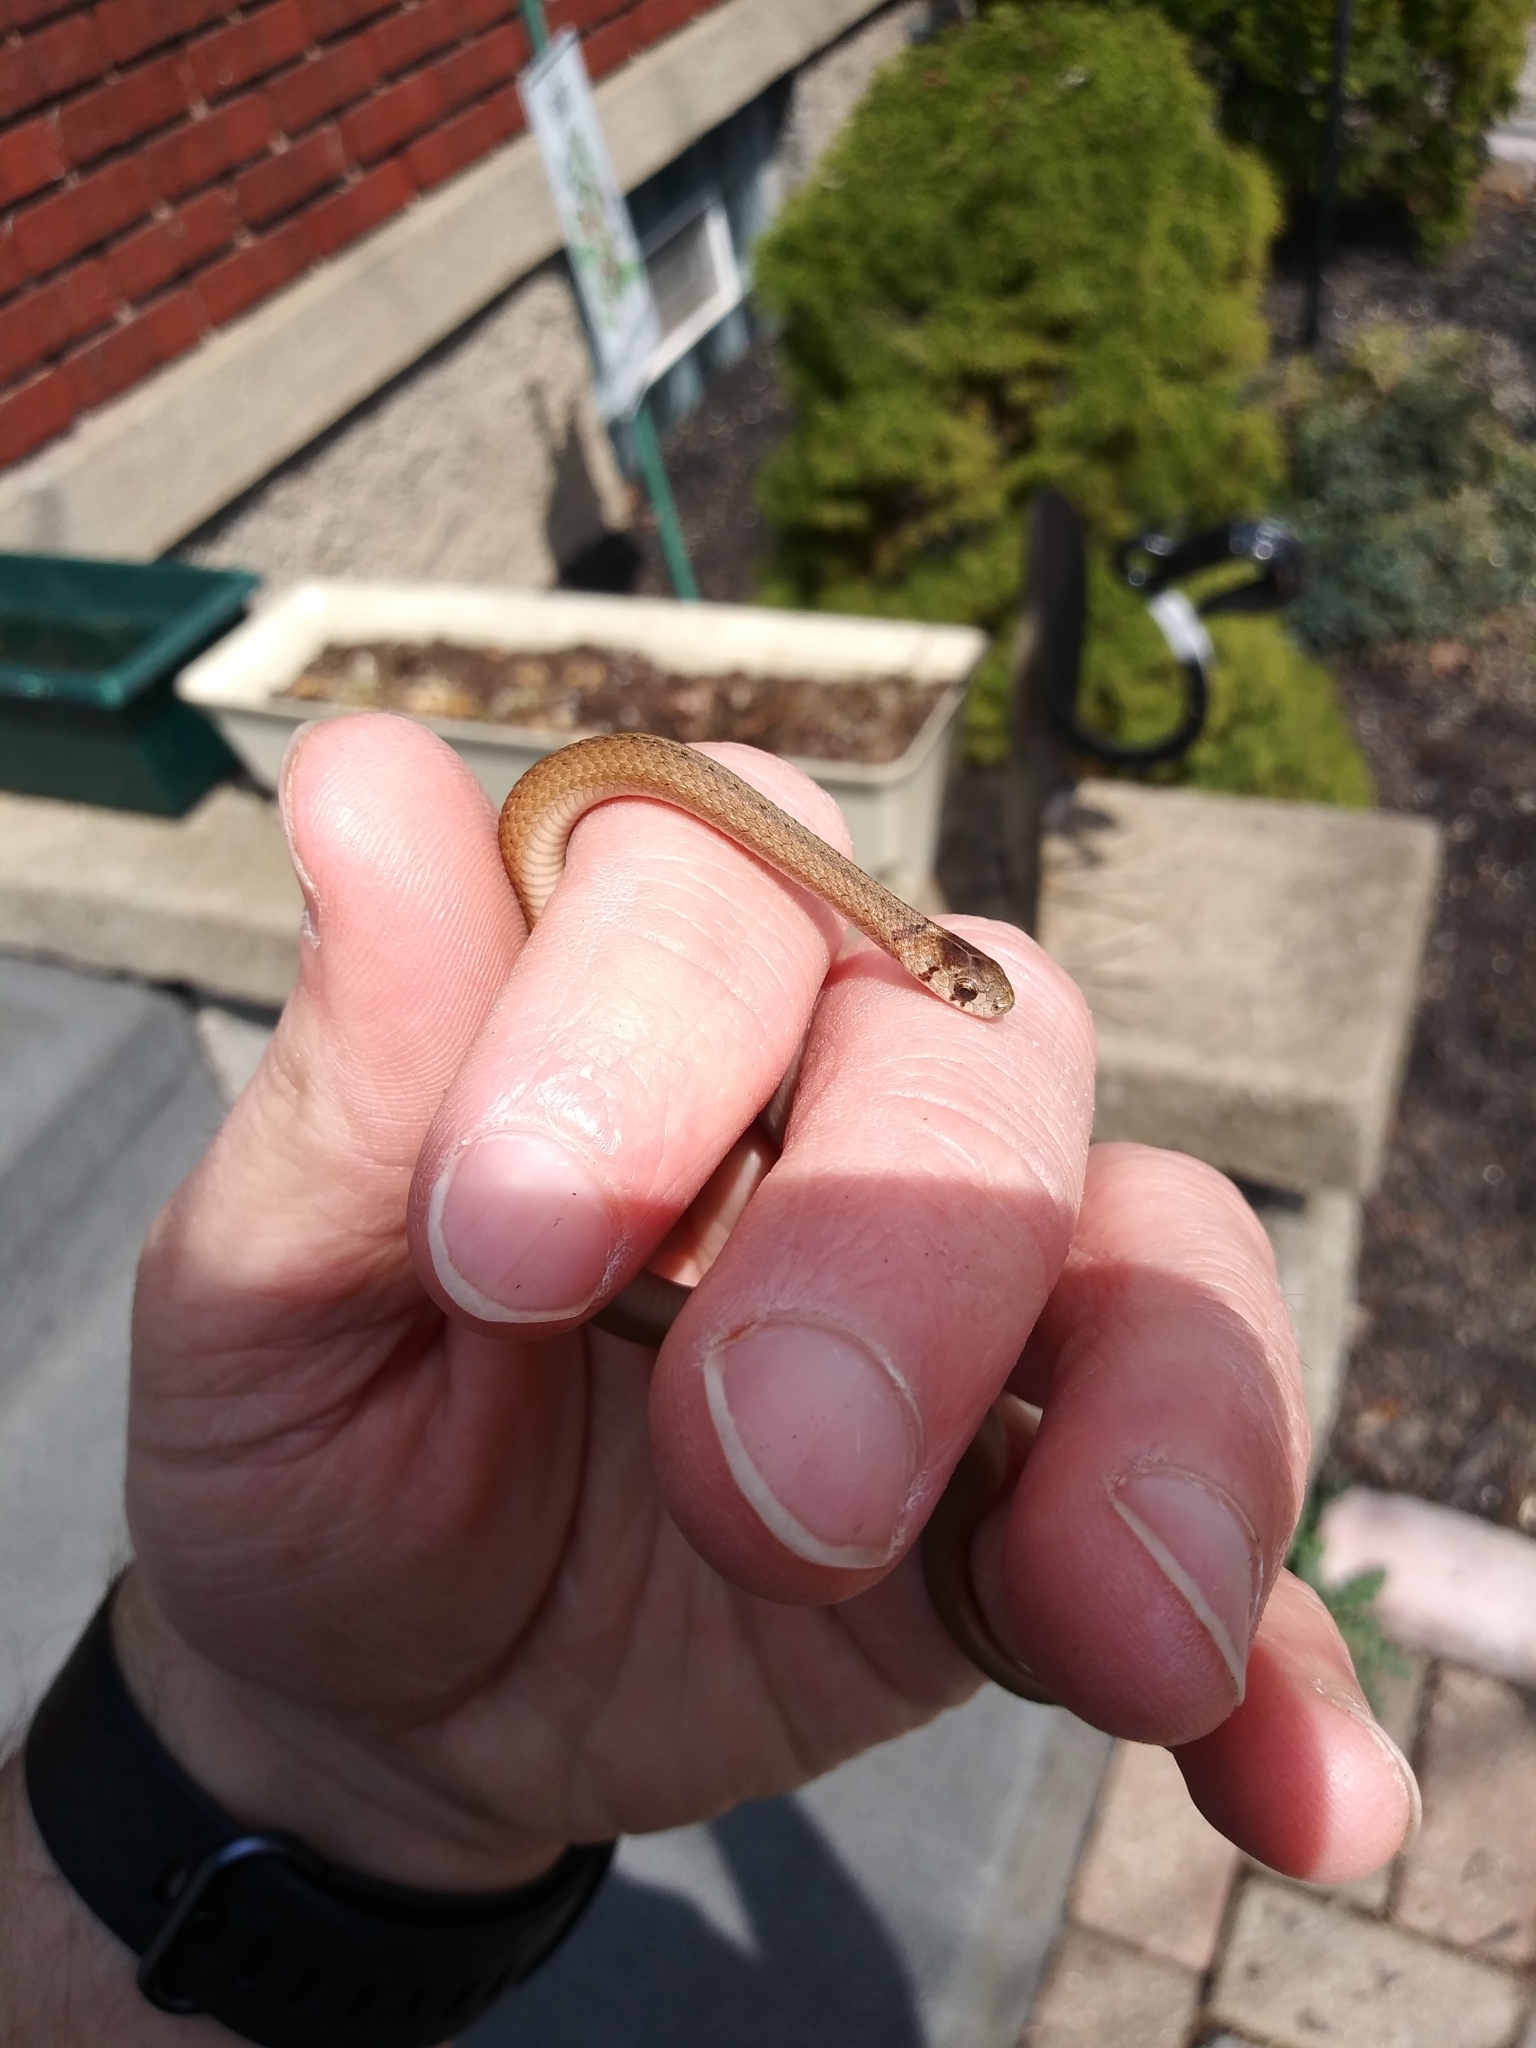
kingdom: Animalia
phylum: Chordata
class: Squamata
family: Colubridae
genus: Storeria
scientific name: Storeria dekayi
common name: (dekay’s) brown snake
